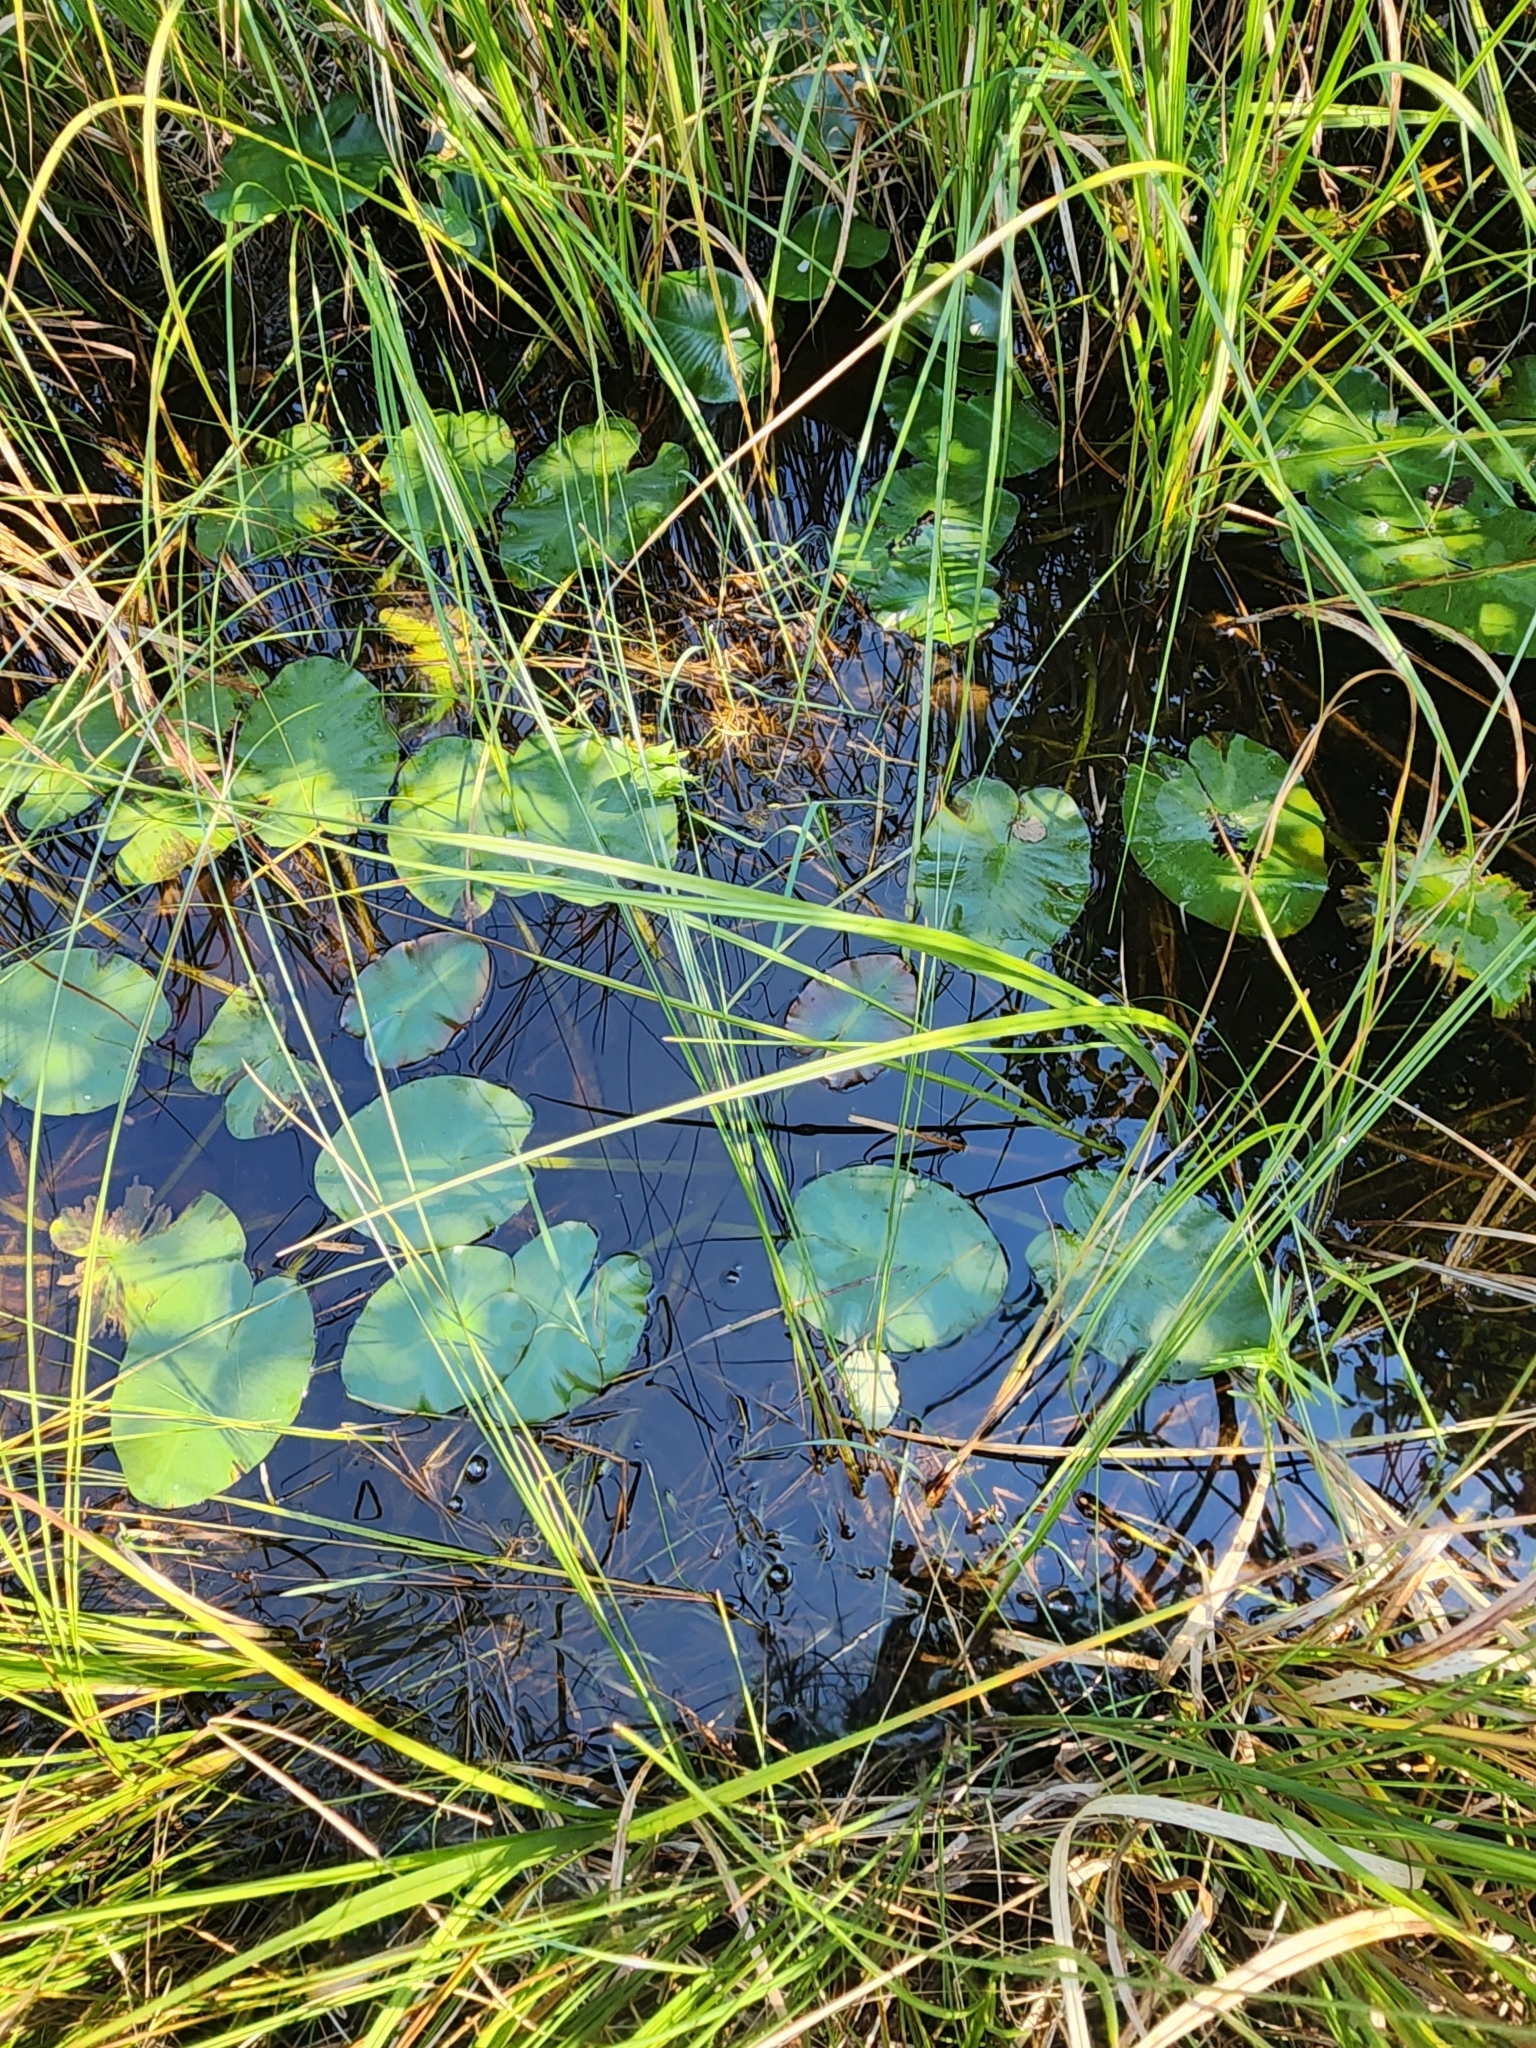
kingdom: Plantae
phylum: Tracheophyta
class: Magnoliopsida
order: Nymphaeales
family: Nymphaeaceae
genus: Nuphar
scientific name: Nuphar variegata
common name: Beaver-root
